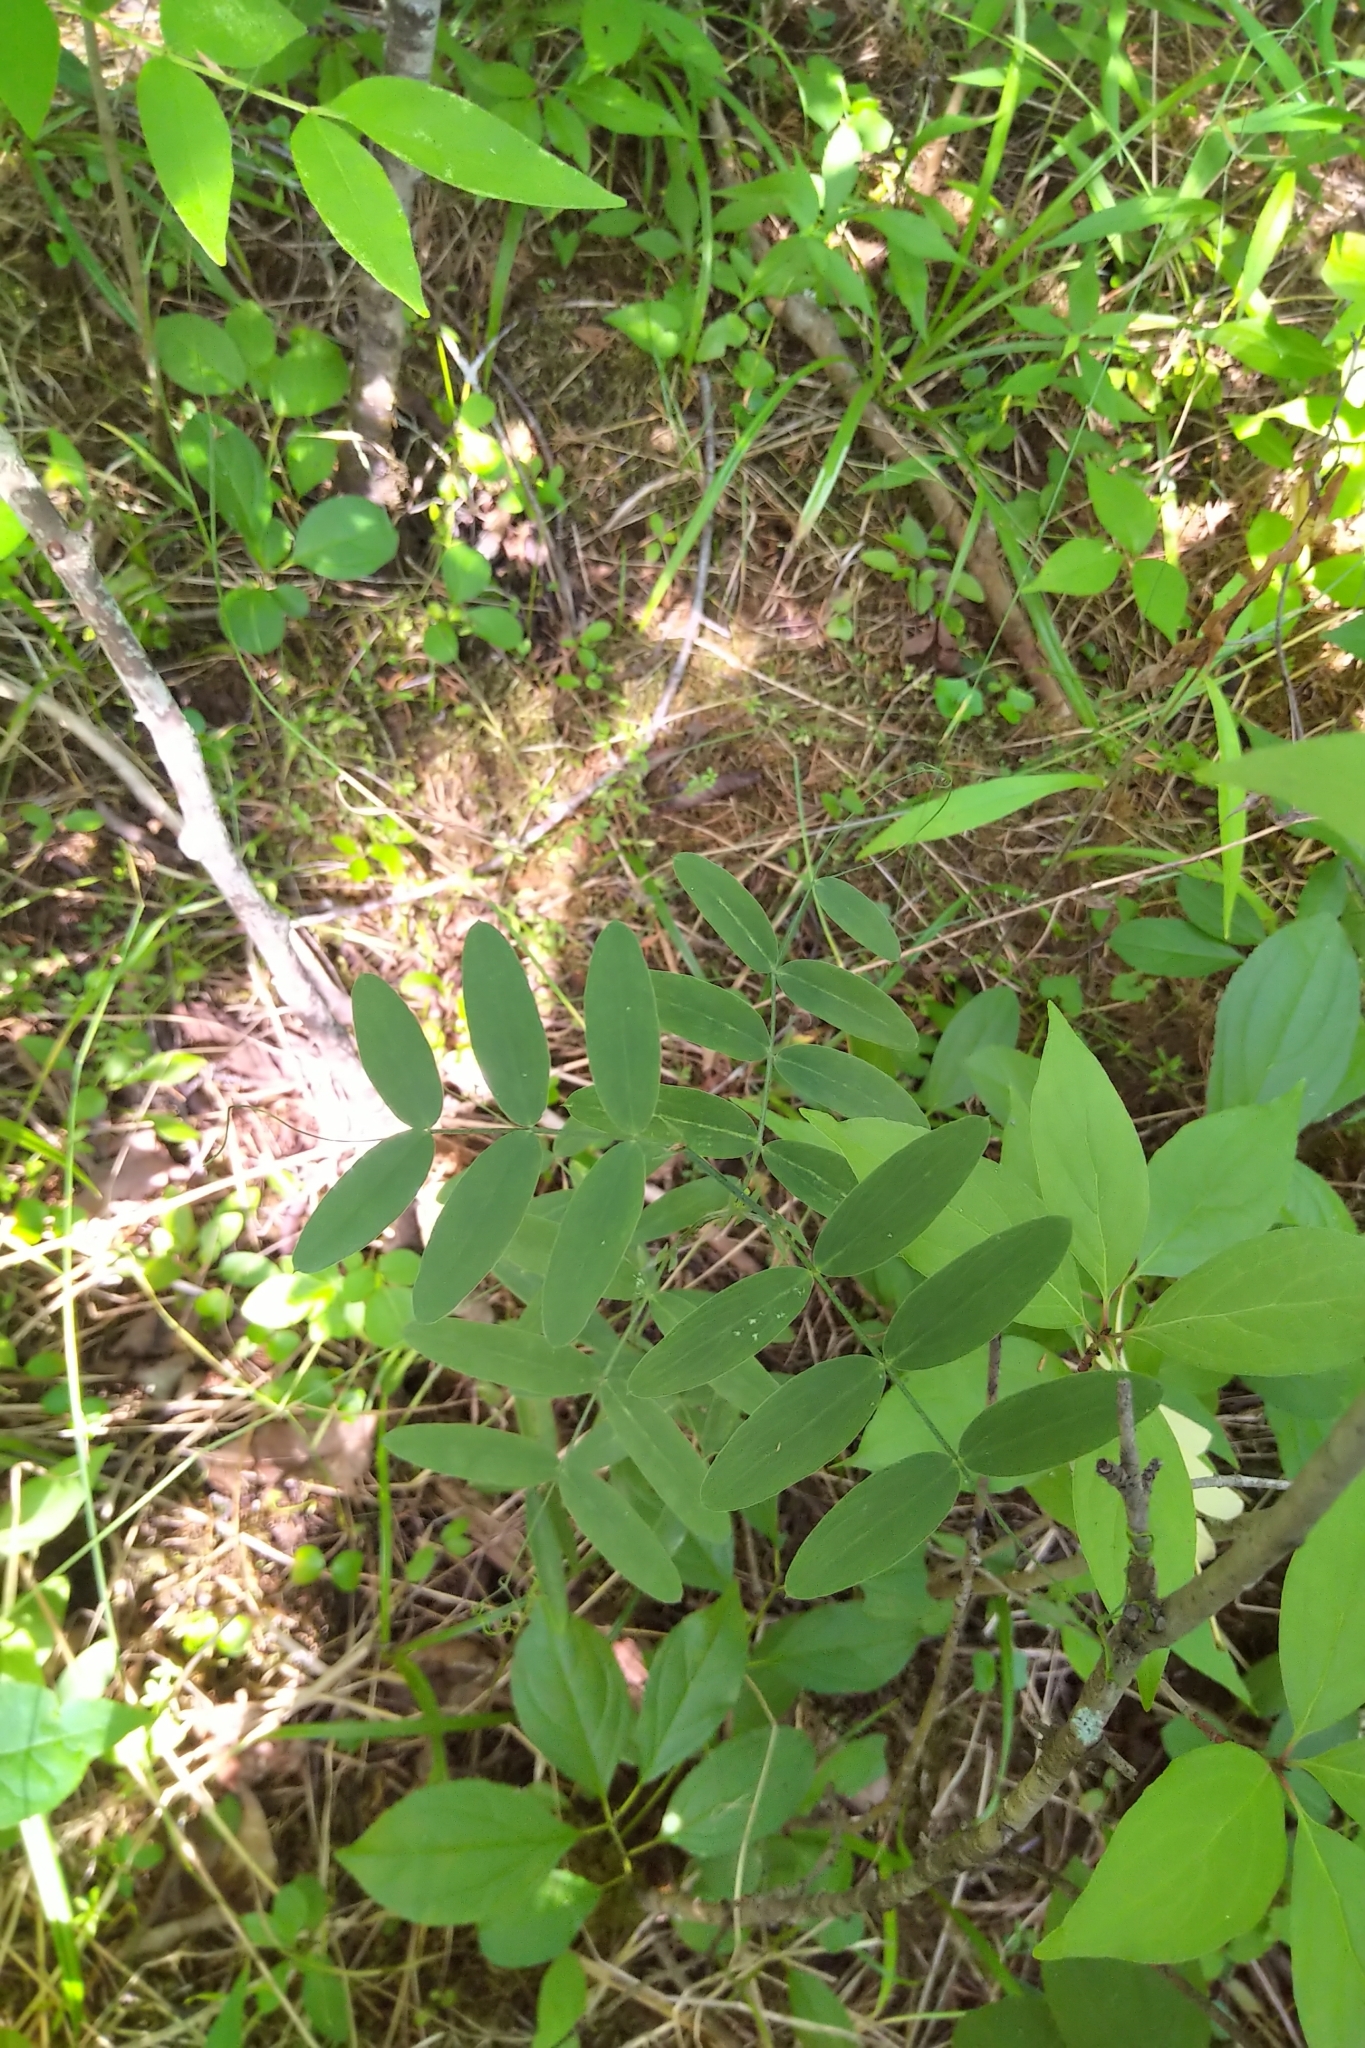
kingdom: Plantae
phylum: Tracheophyta
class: Magnoliopsida
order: Fabales
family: Fabaceae
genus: Lathyrus
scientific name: Lathyrus palustris
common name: Marsh pea
